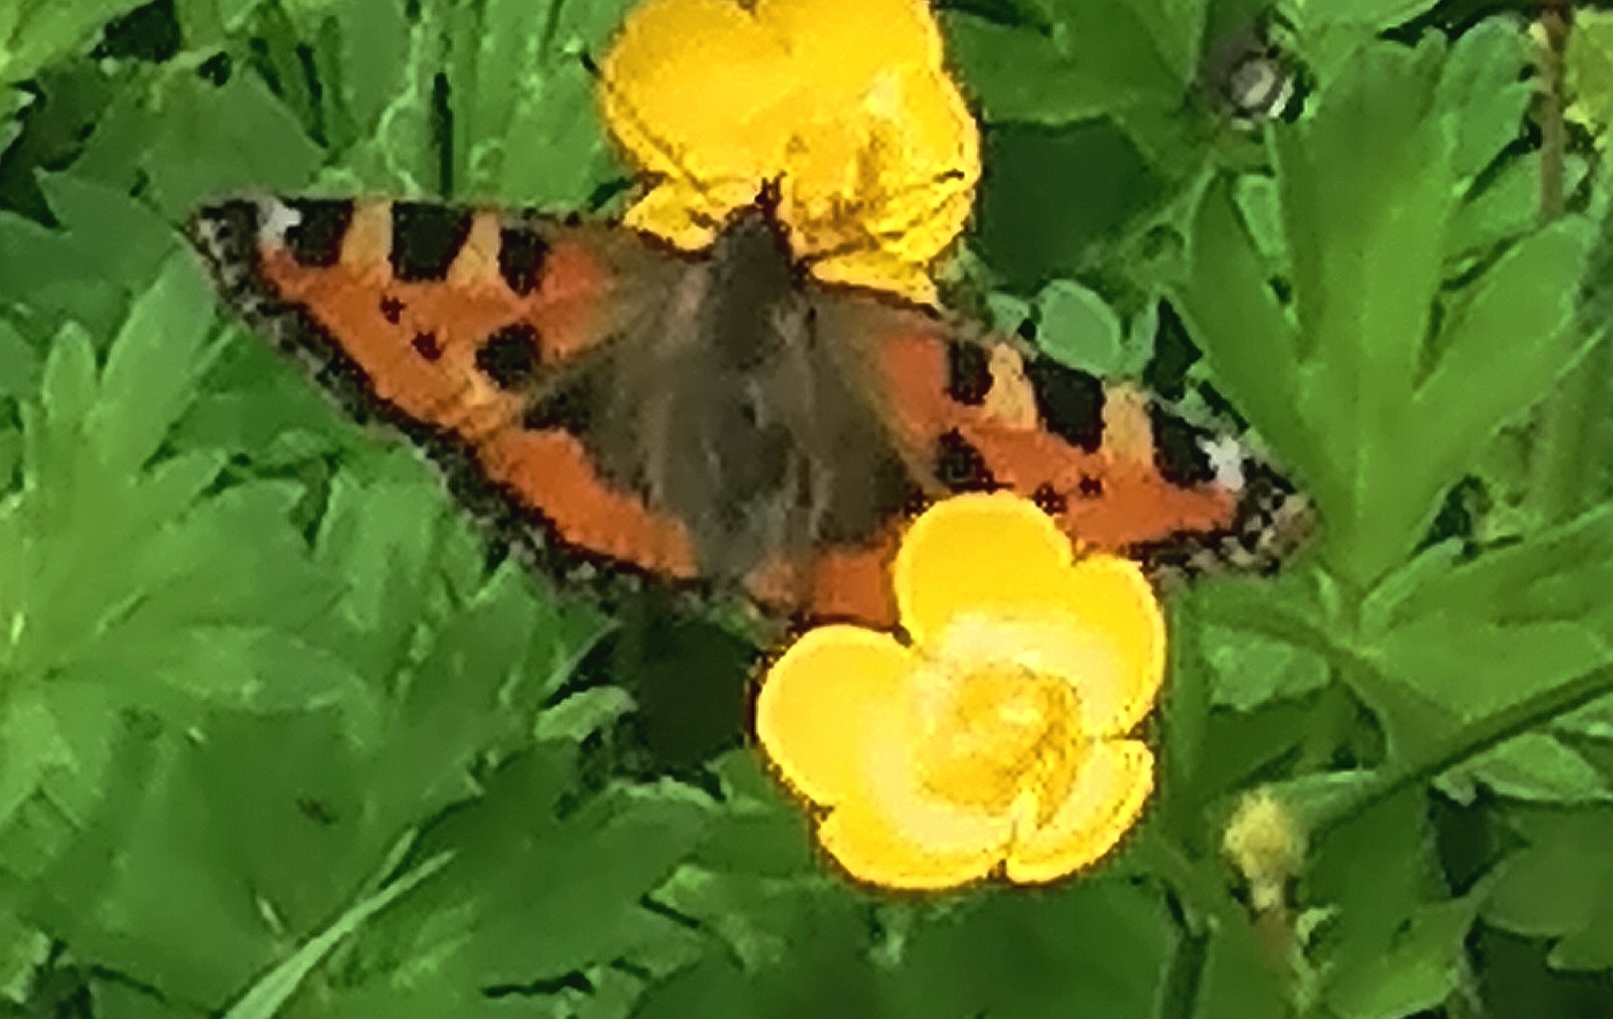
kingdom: Animalia
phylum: Arthropoda
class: Insecta
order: Lepidoptera
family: Nymphalidae
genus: Aglais
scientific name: Aglais urticae
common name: Small tortoiseshell
